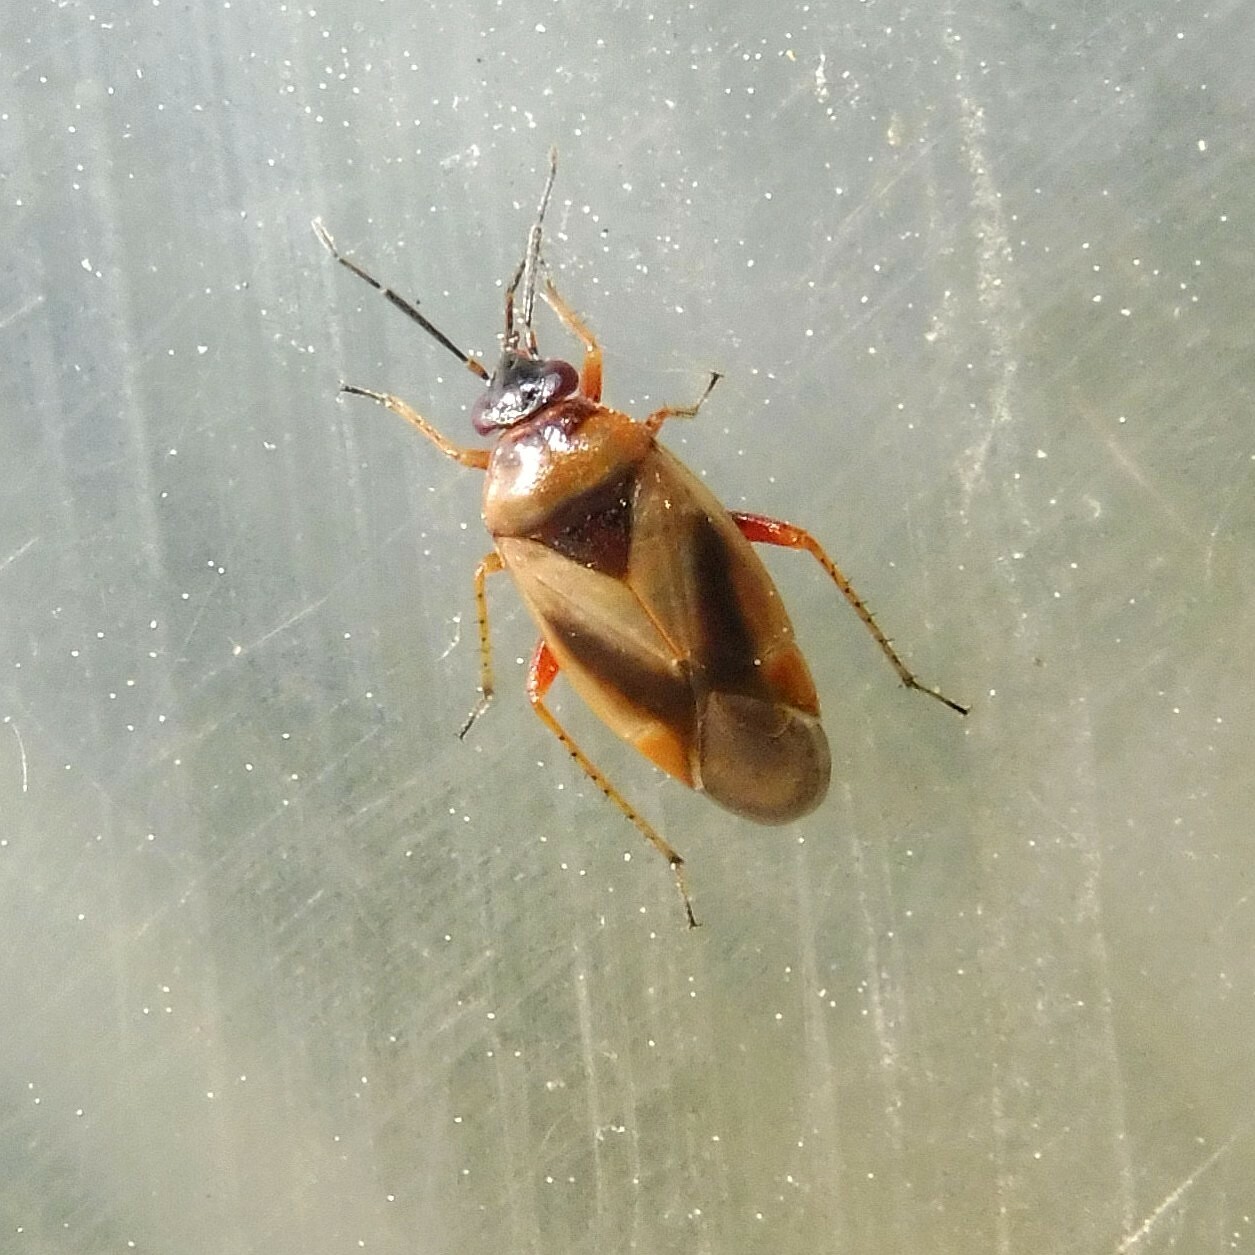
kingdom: Animalia
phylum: Arthropoda
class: Insecta
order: Hemiptera
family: Miridae
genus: Salicarus
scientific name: Salicarus roseri
